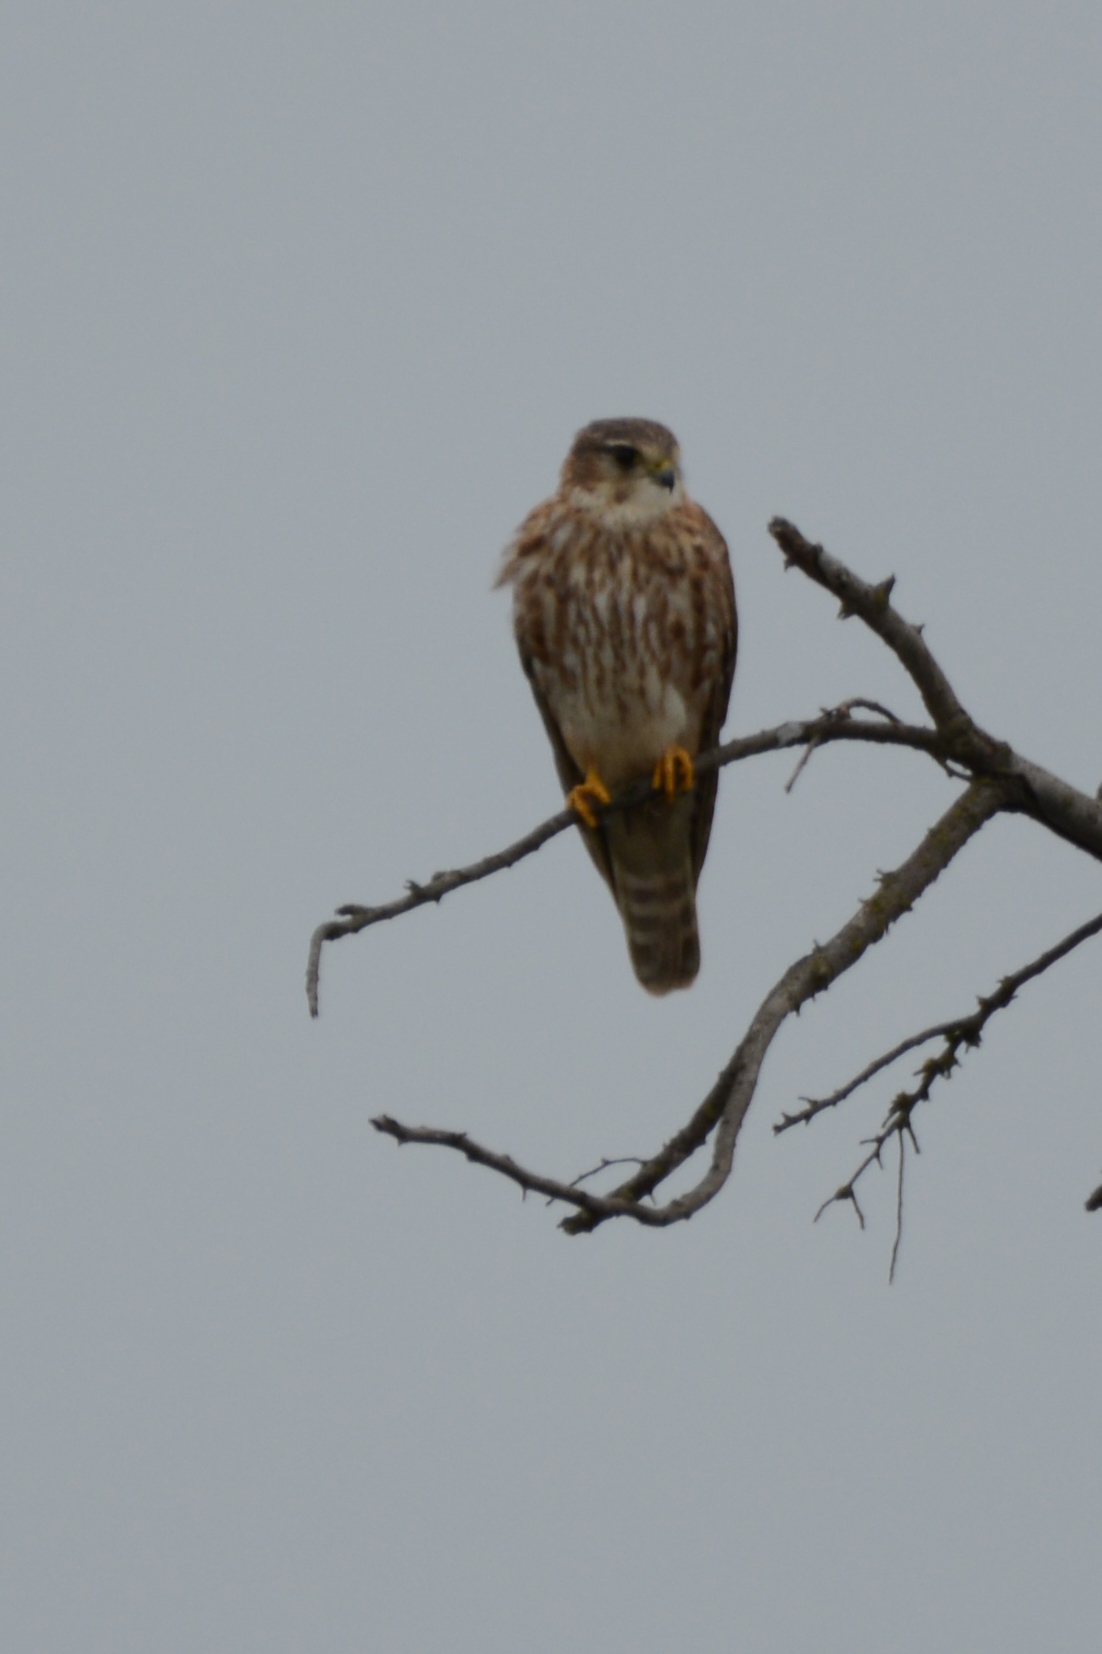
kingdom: Animalia
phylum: Chordata
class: Aves
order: Falconiformes
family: Falconidae
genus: Falco
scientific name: Falco columbarius
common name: Merlin
